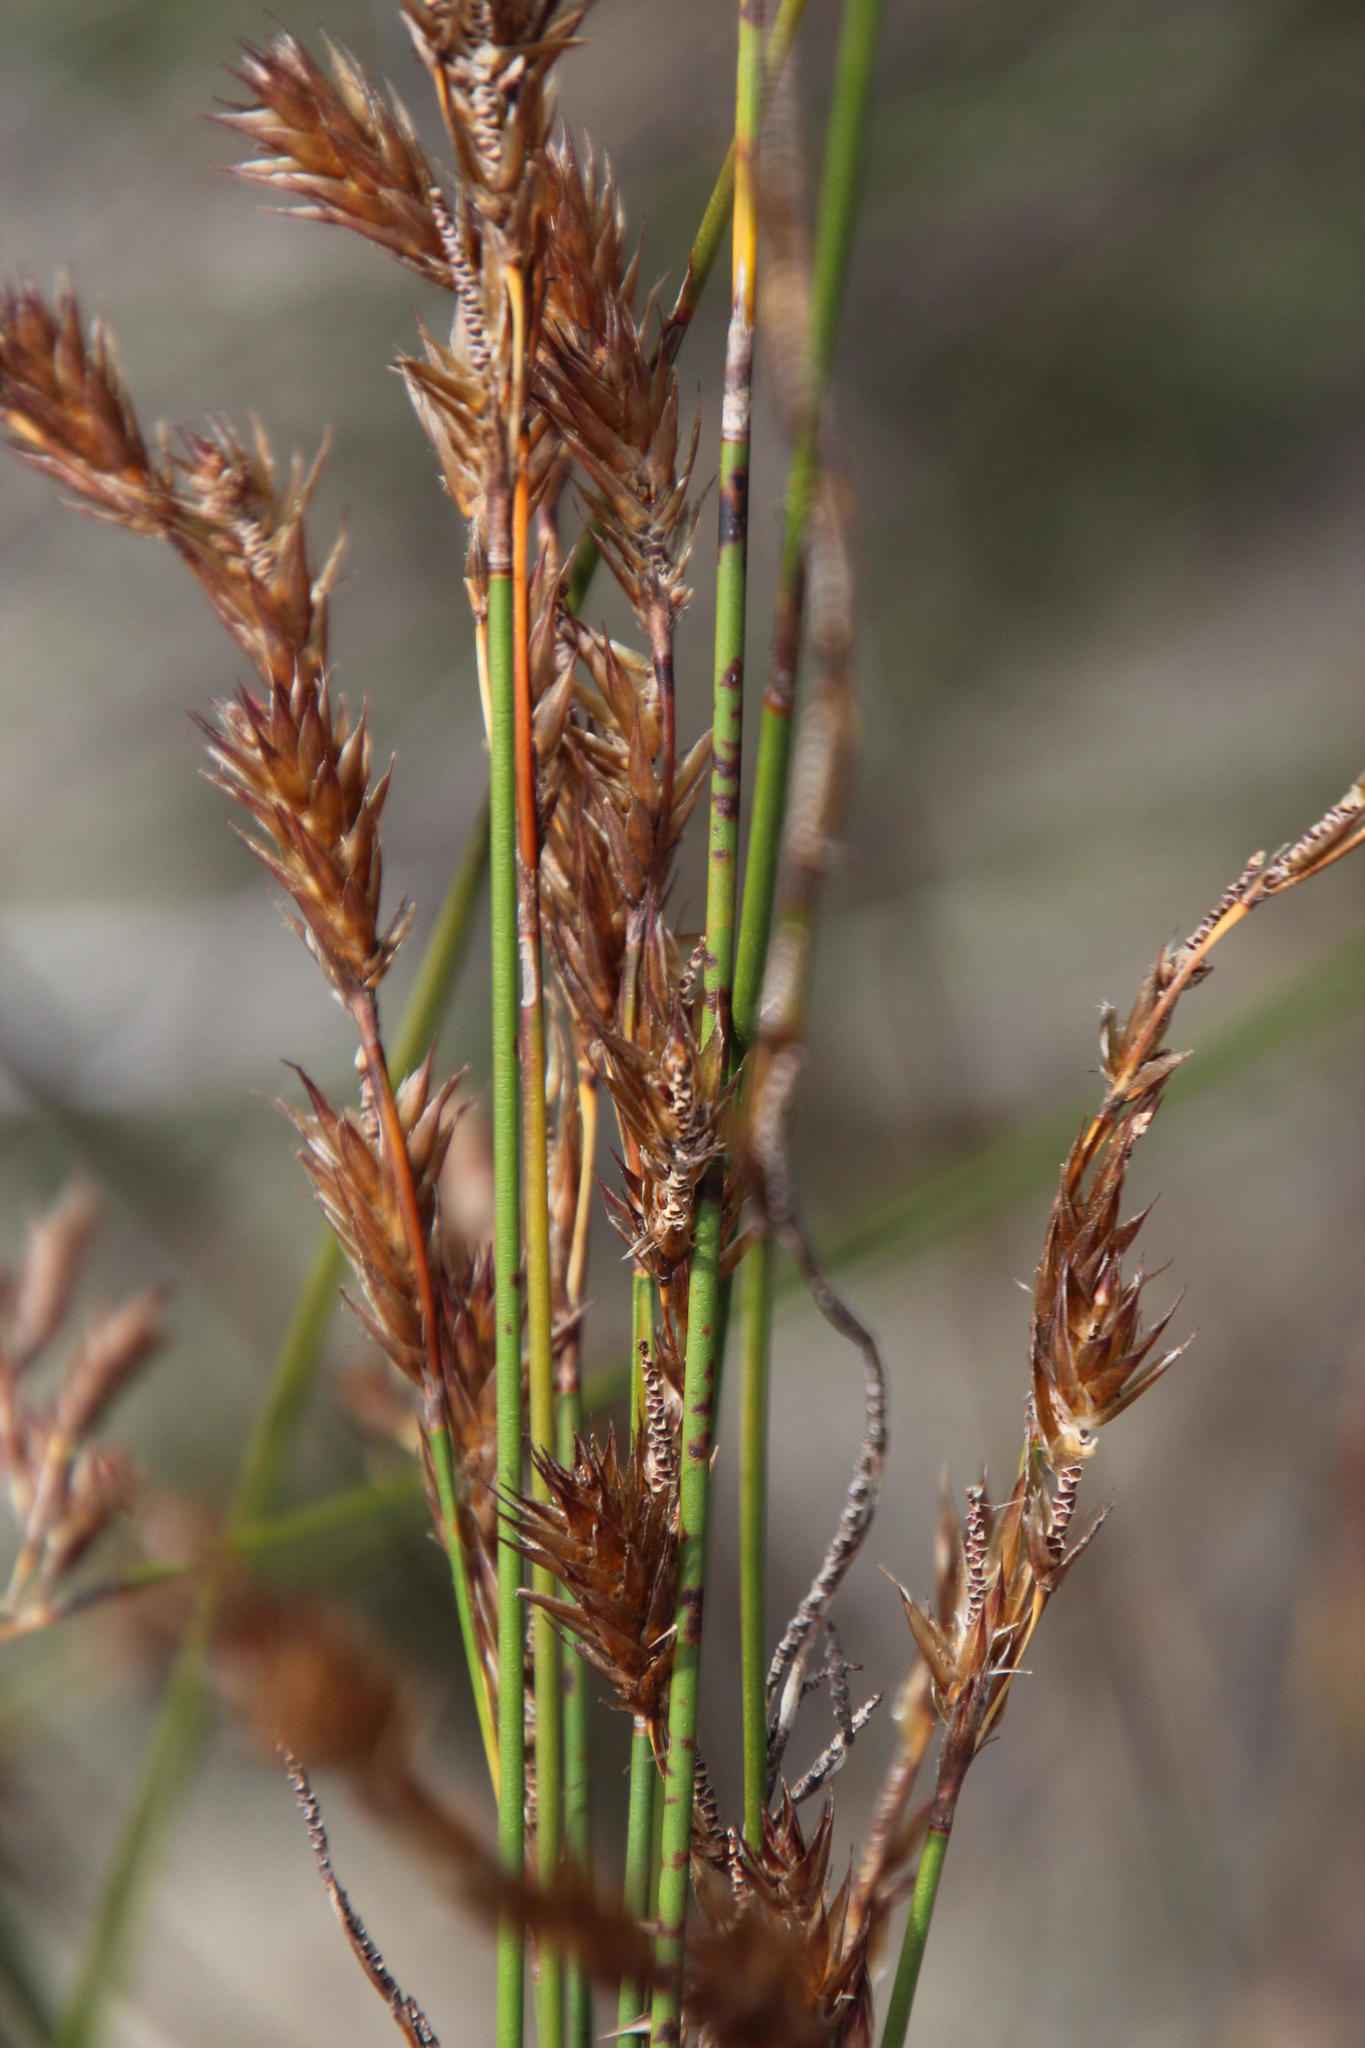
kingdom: Plantae
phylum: Tracheophyta
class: Liliopsida
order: Poales
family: Restionaceae
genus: Thamnochortus
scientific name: Thamnochortus punctatus
